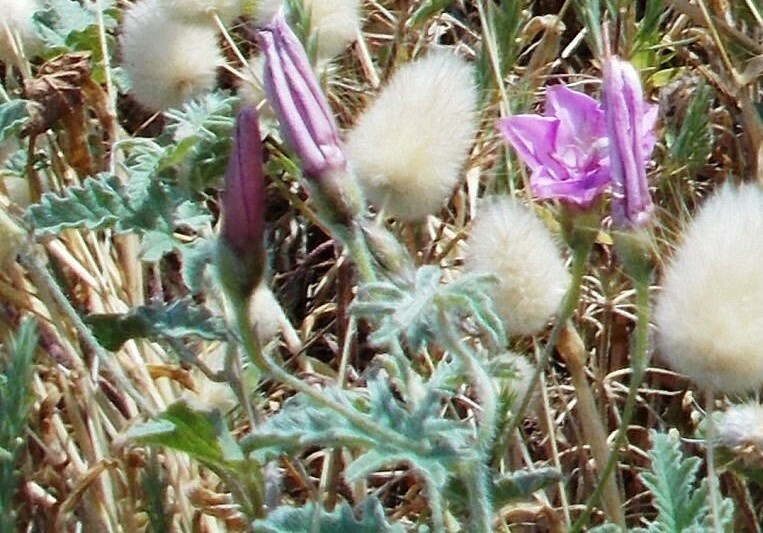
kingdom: Plantae
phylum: Tracheophyta
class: Magnoliopsida
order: Solanales
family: Convolvulaceae
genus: Convolvulus
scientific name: Convolvulus althaeoides
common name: Mallow bindweed
